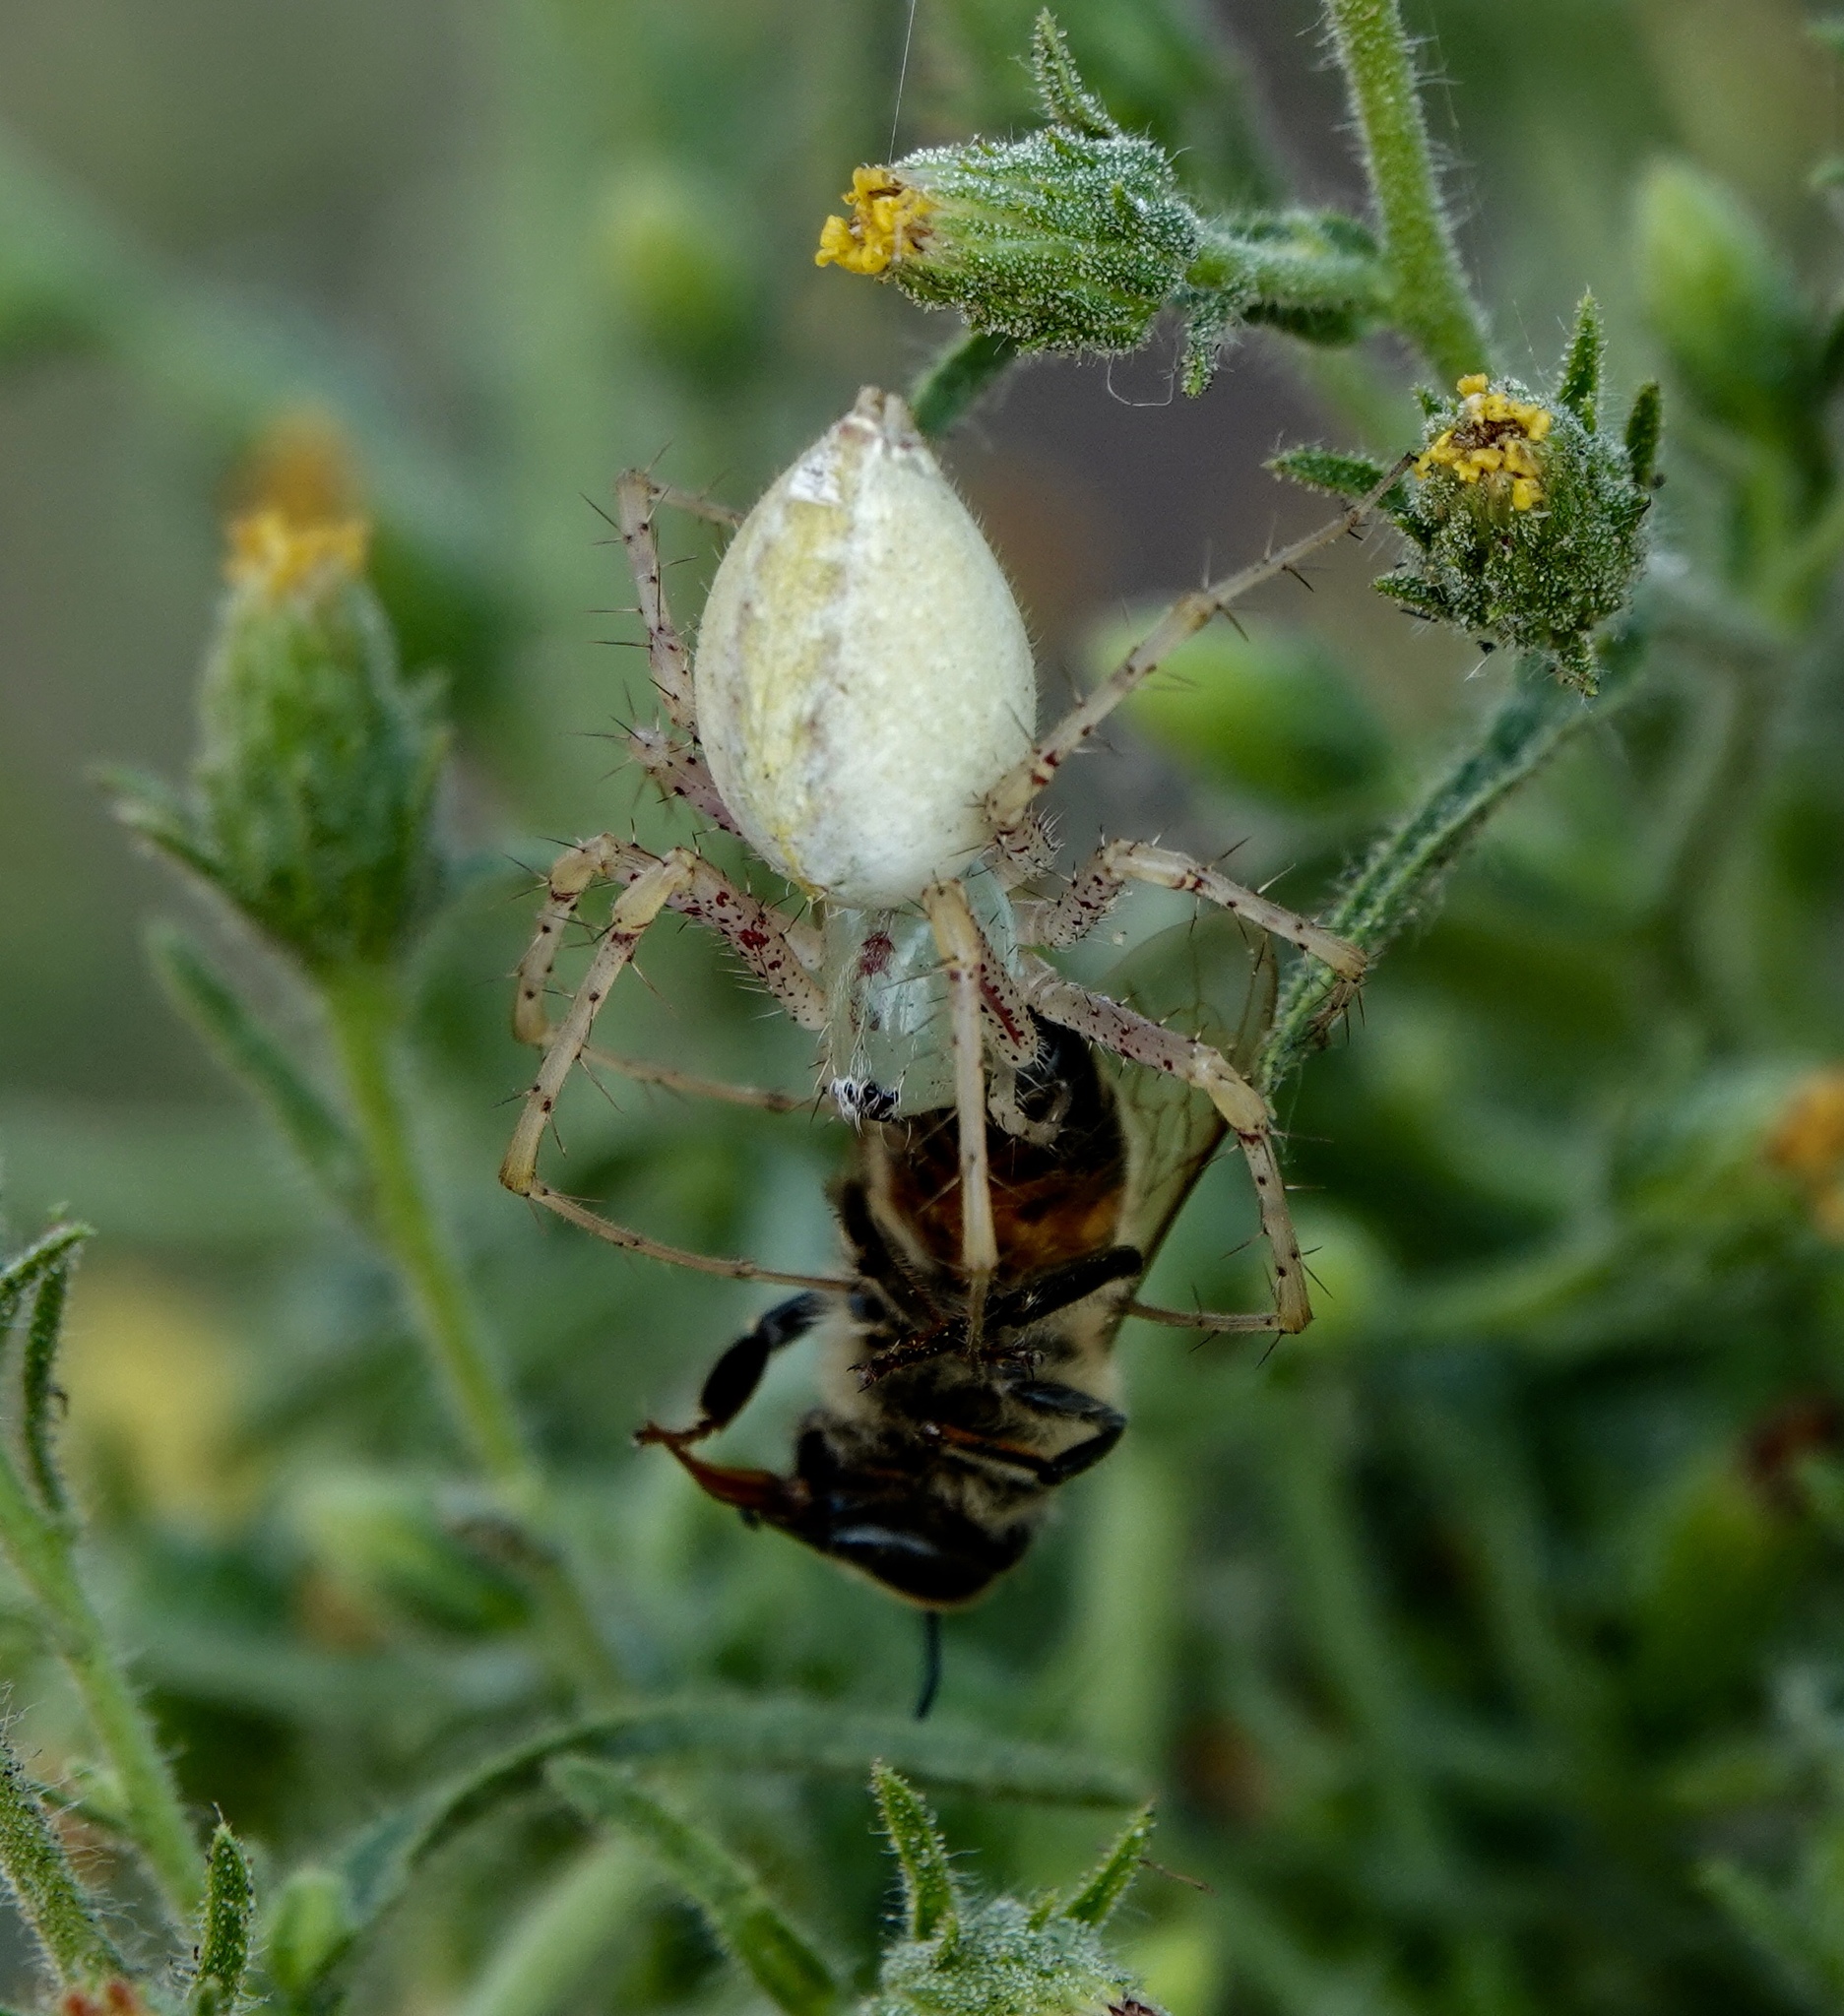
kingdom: Animalia
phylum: Arthropoda
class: Arachnida
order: Araneae
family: Oxyopidae
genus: Peucetia
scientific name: Peucetia longipalpis
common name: Lynx spiders
